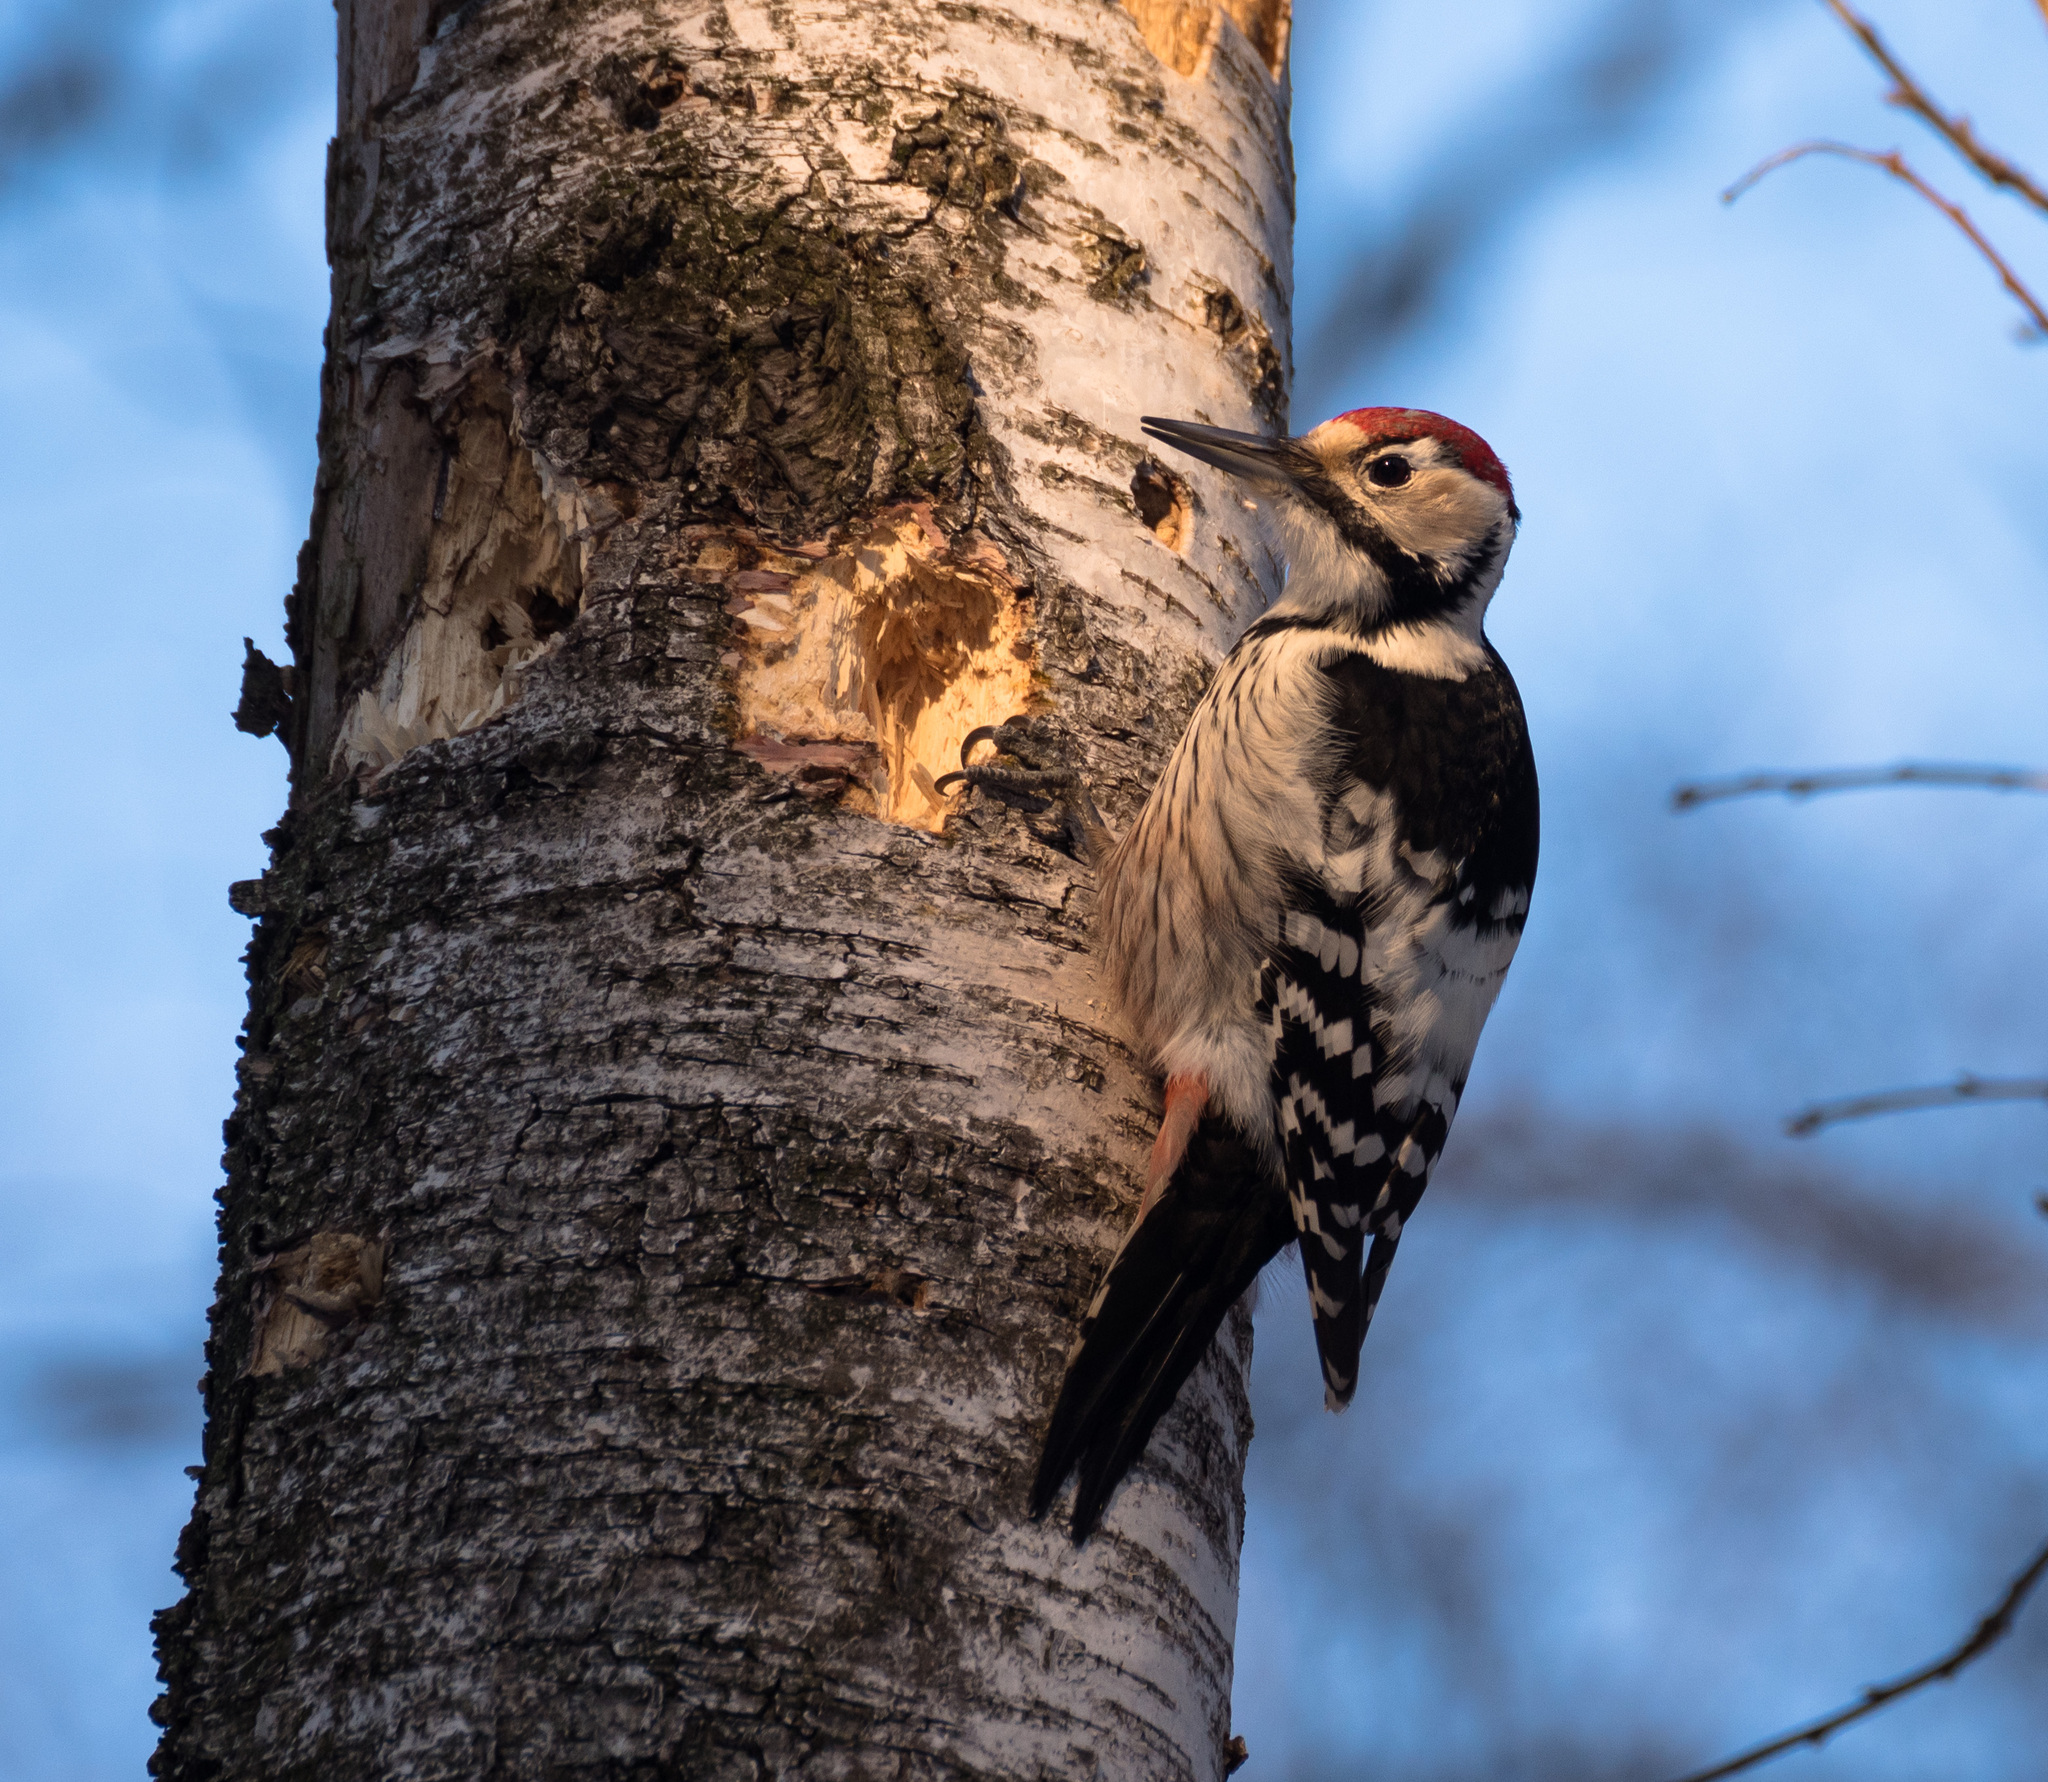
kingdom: Animalia
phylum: Chordata
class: Aves
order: Piciformes
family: Picidae
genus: Dendrocopos
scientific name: Dendrocopos leucotos
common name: White-backed woodpecker
